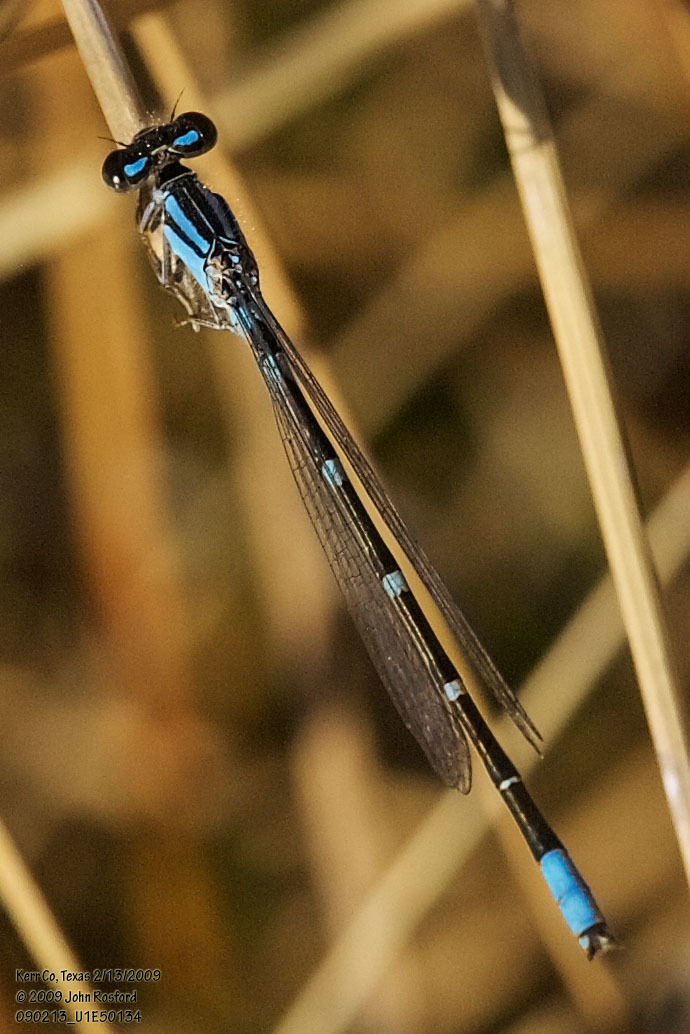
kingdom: Animalia
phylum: Arthropoda
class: Insecta
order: Odonata
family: Coenagrionidae
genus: Enallagma
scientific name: Enallagma praevarum
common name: Arroyo bluet
